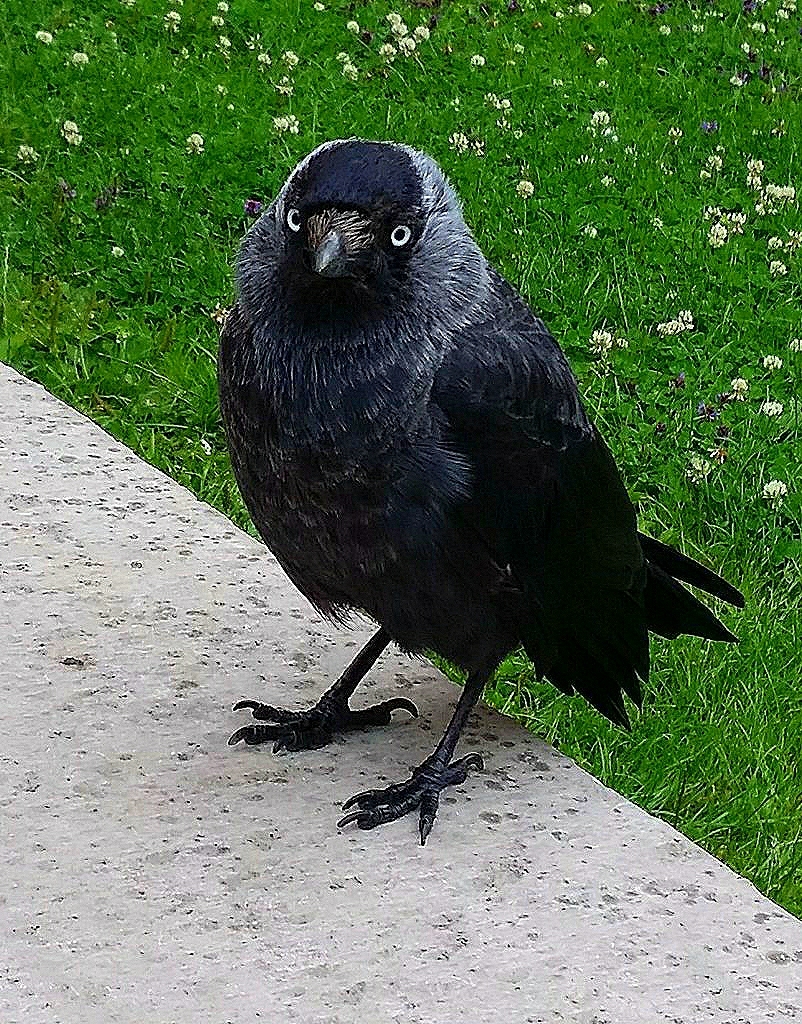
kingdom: Animalia
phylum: Chordata
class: Aves
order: Passeriformes
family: Corvidae
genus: Coloeus
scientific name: Coloeus monedula
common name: Western jackdaw
